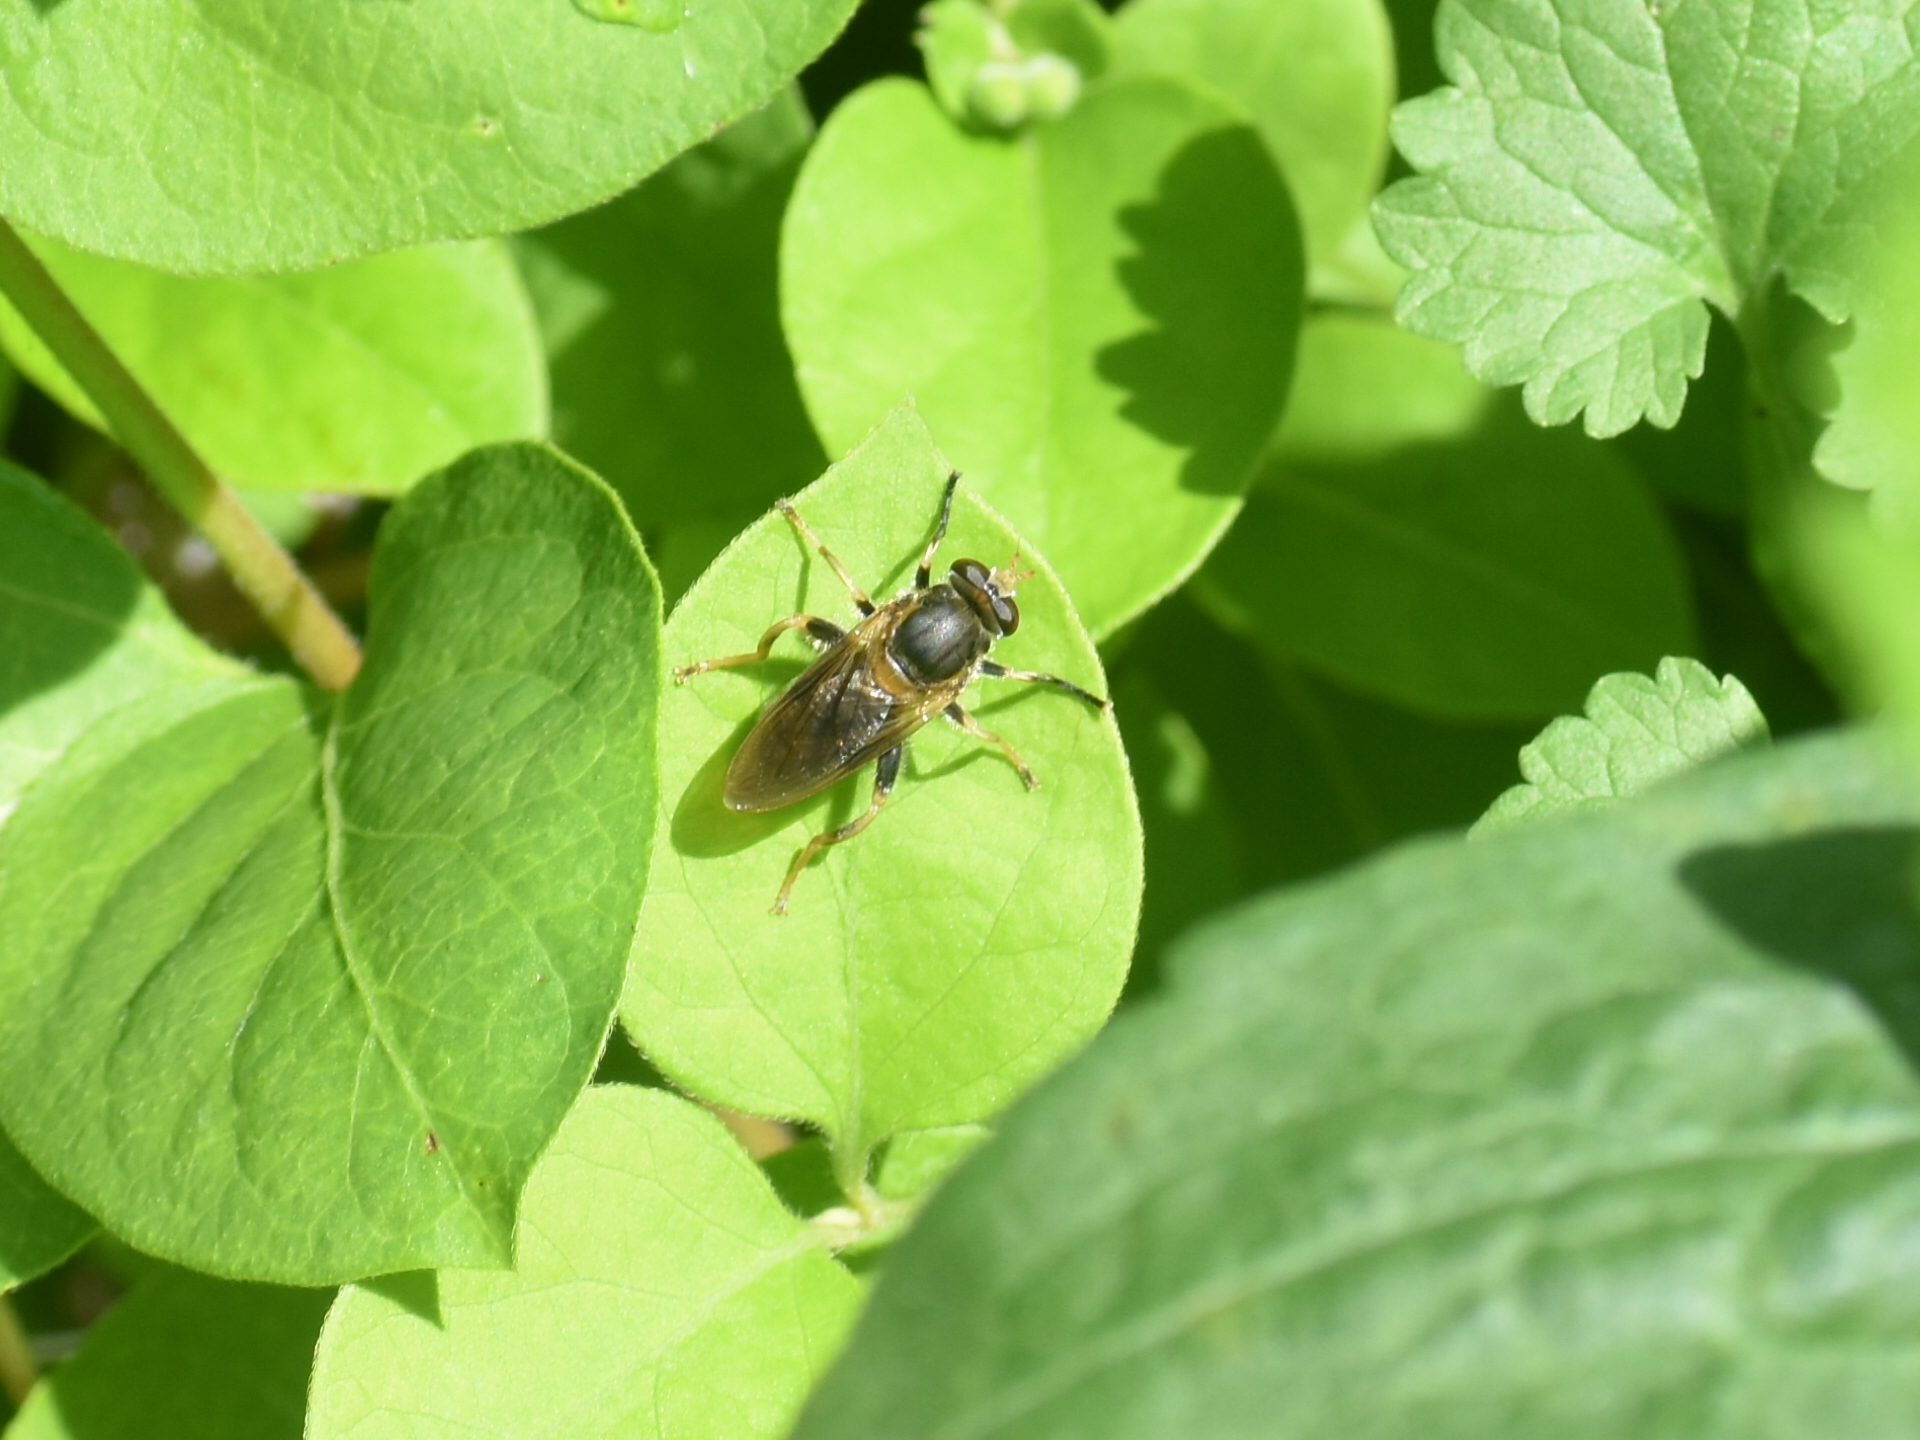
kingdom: Animalia
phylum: Arthropoda
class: Insecta
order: Diptera
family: Syrphidae
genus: Teuchocnemis
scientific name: Teuchocnemis lituratus
